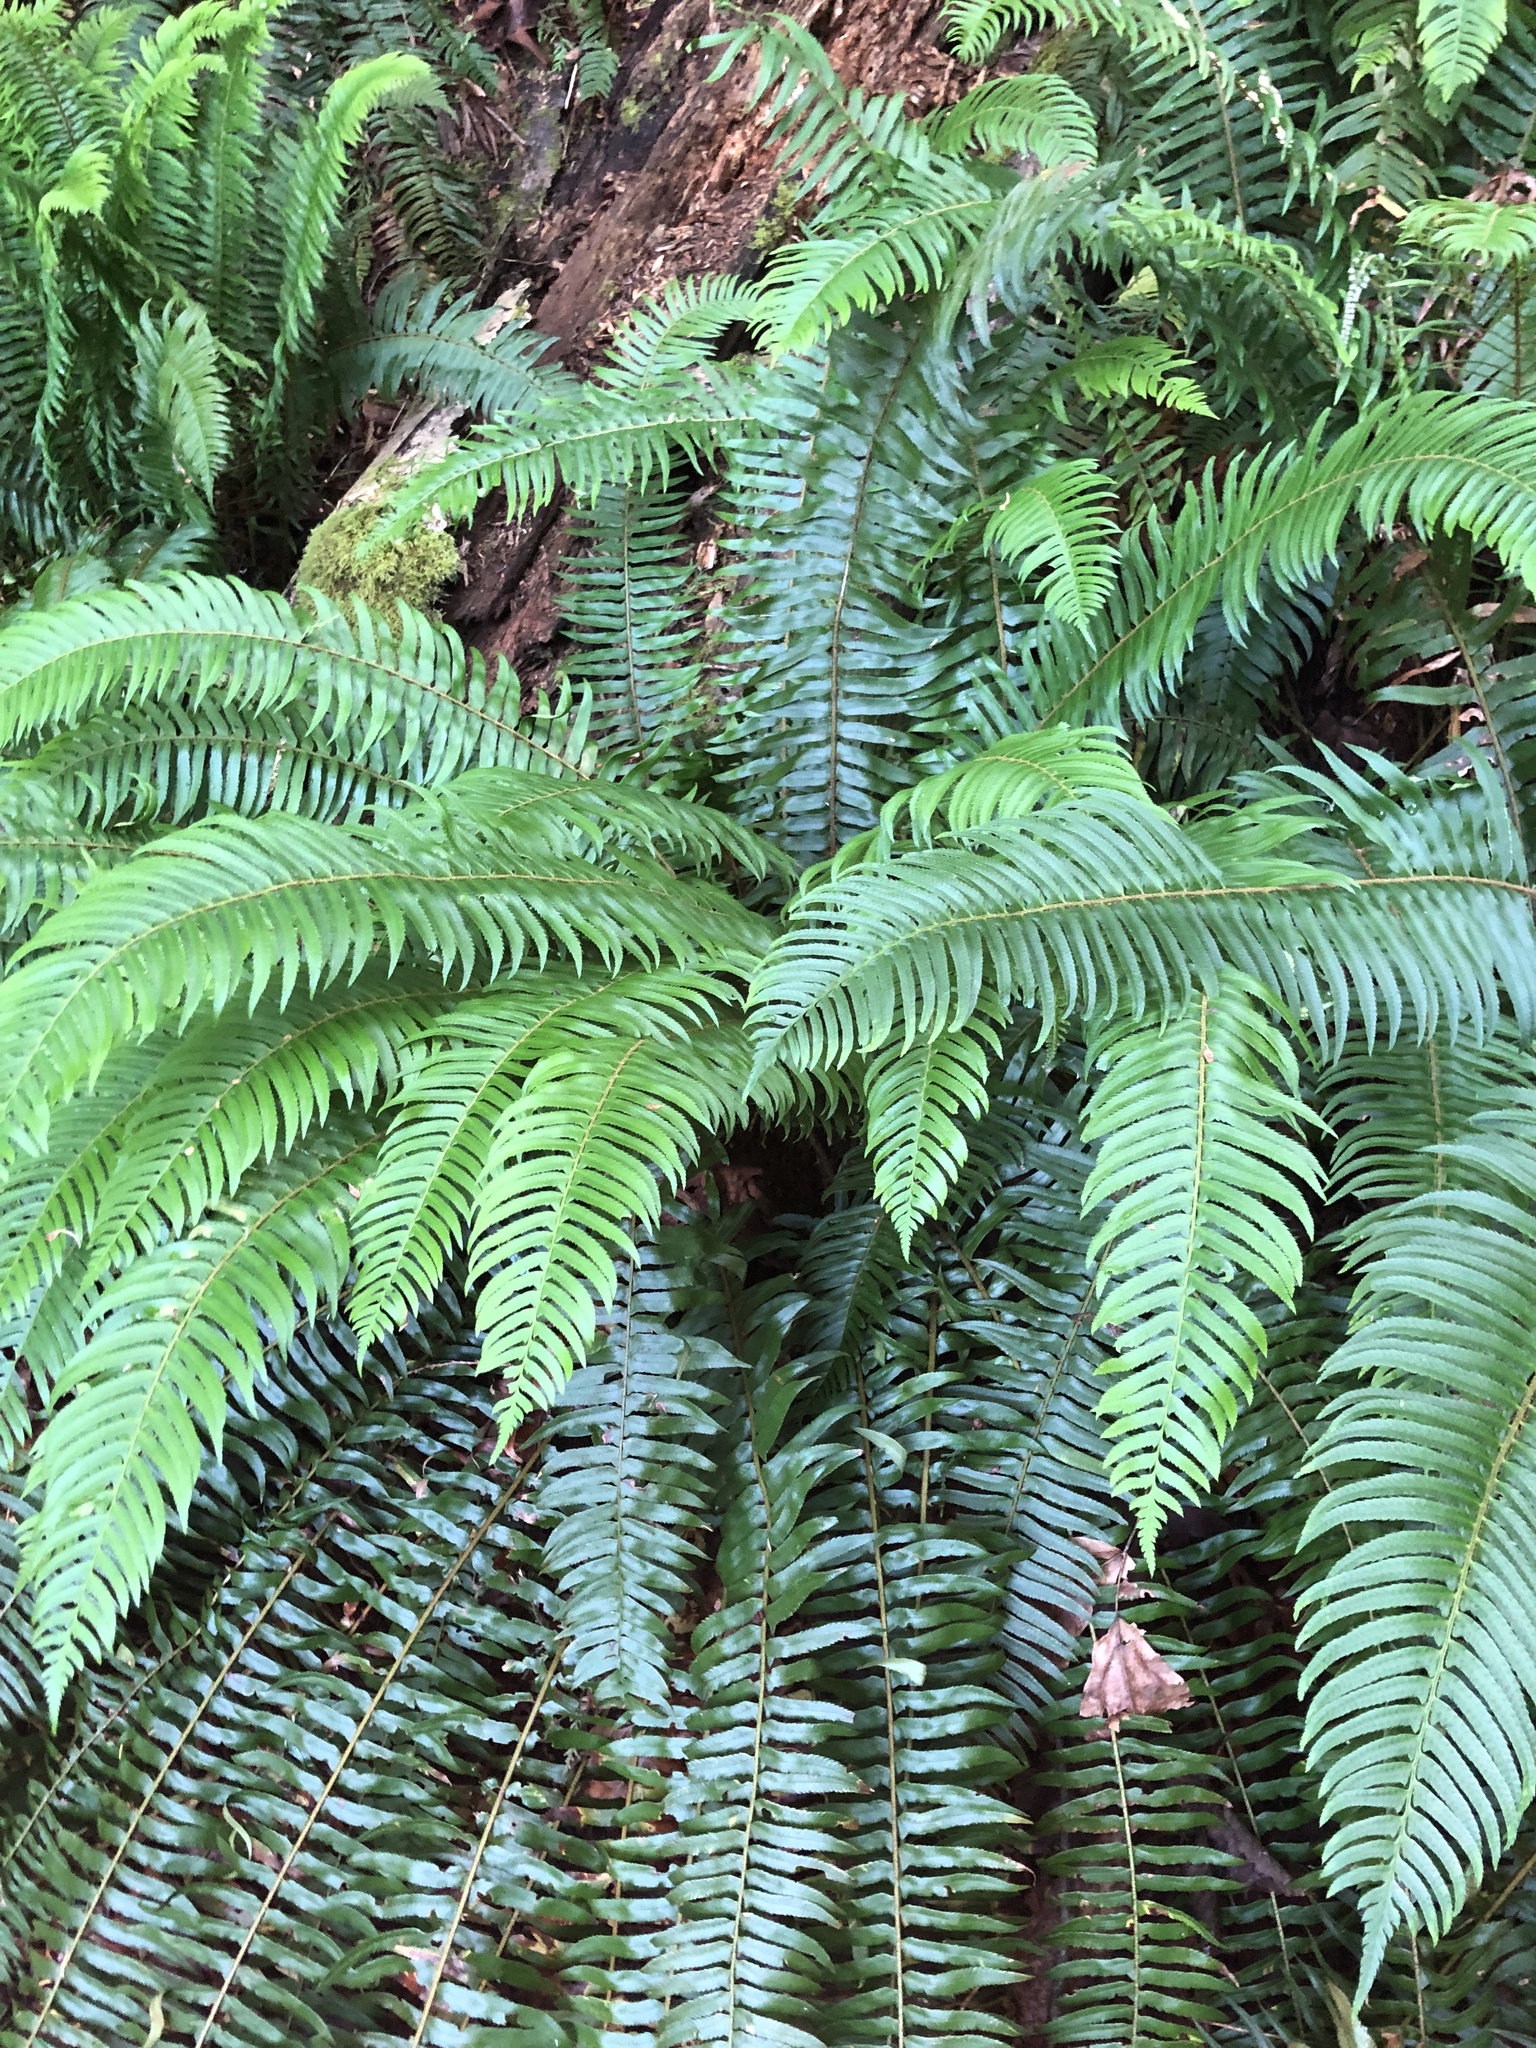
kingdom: Plantae
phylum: Tracheophyta
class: Polypodiopsida
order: Polypodiales
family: Dryopteridaceae
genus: Polystichum
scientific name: Polystichum munitum
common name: Western sword-fern
